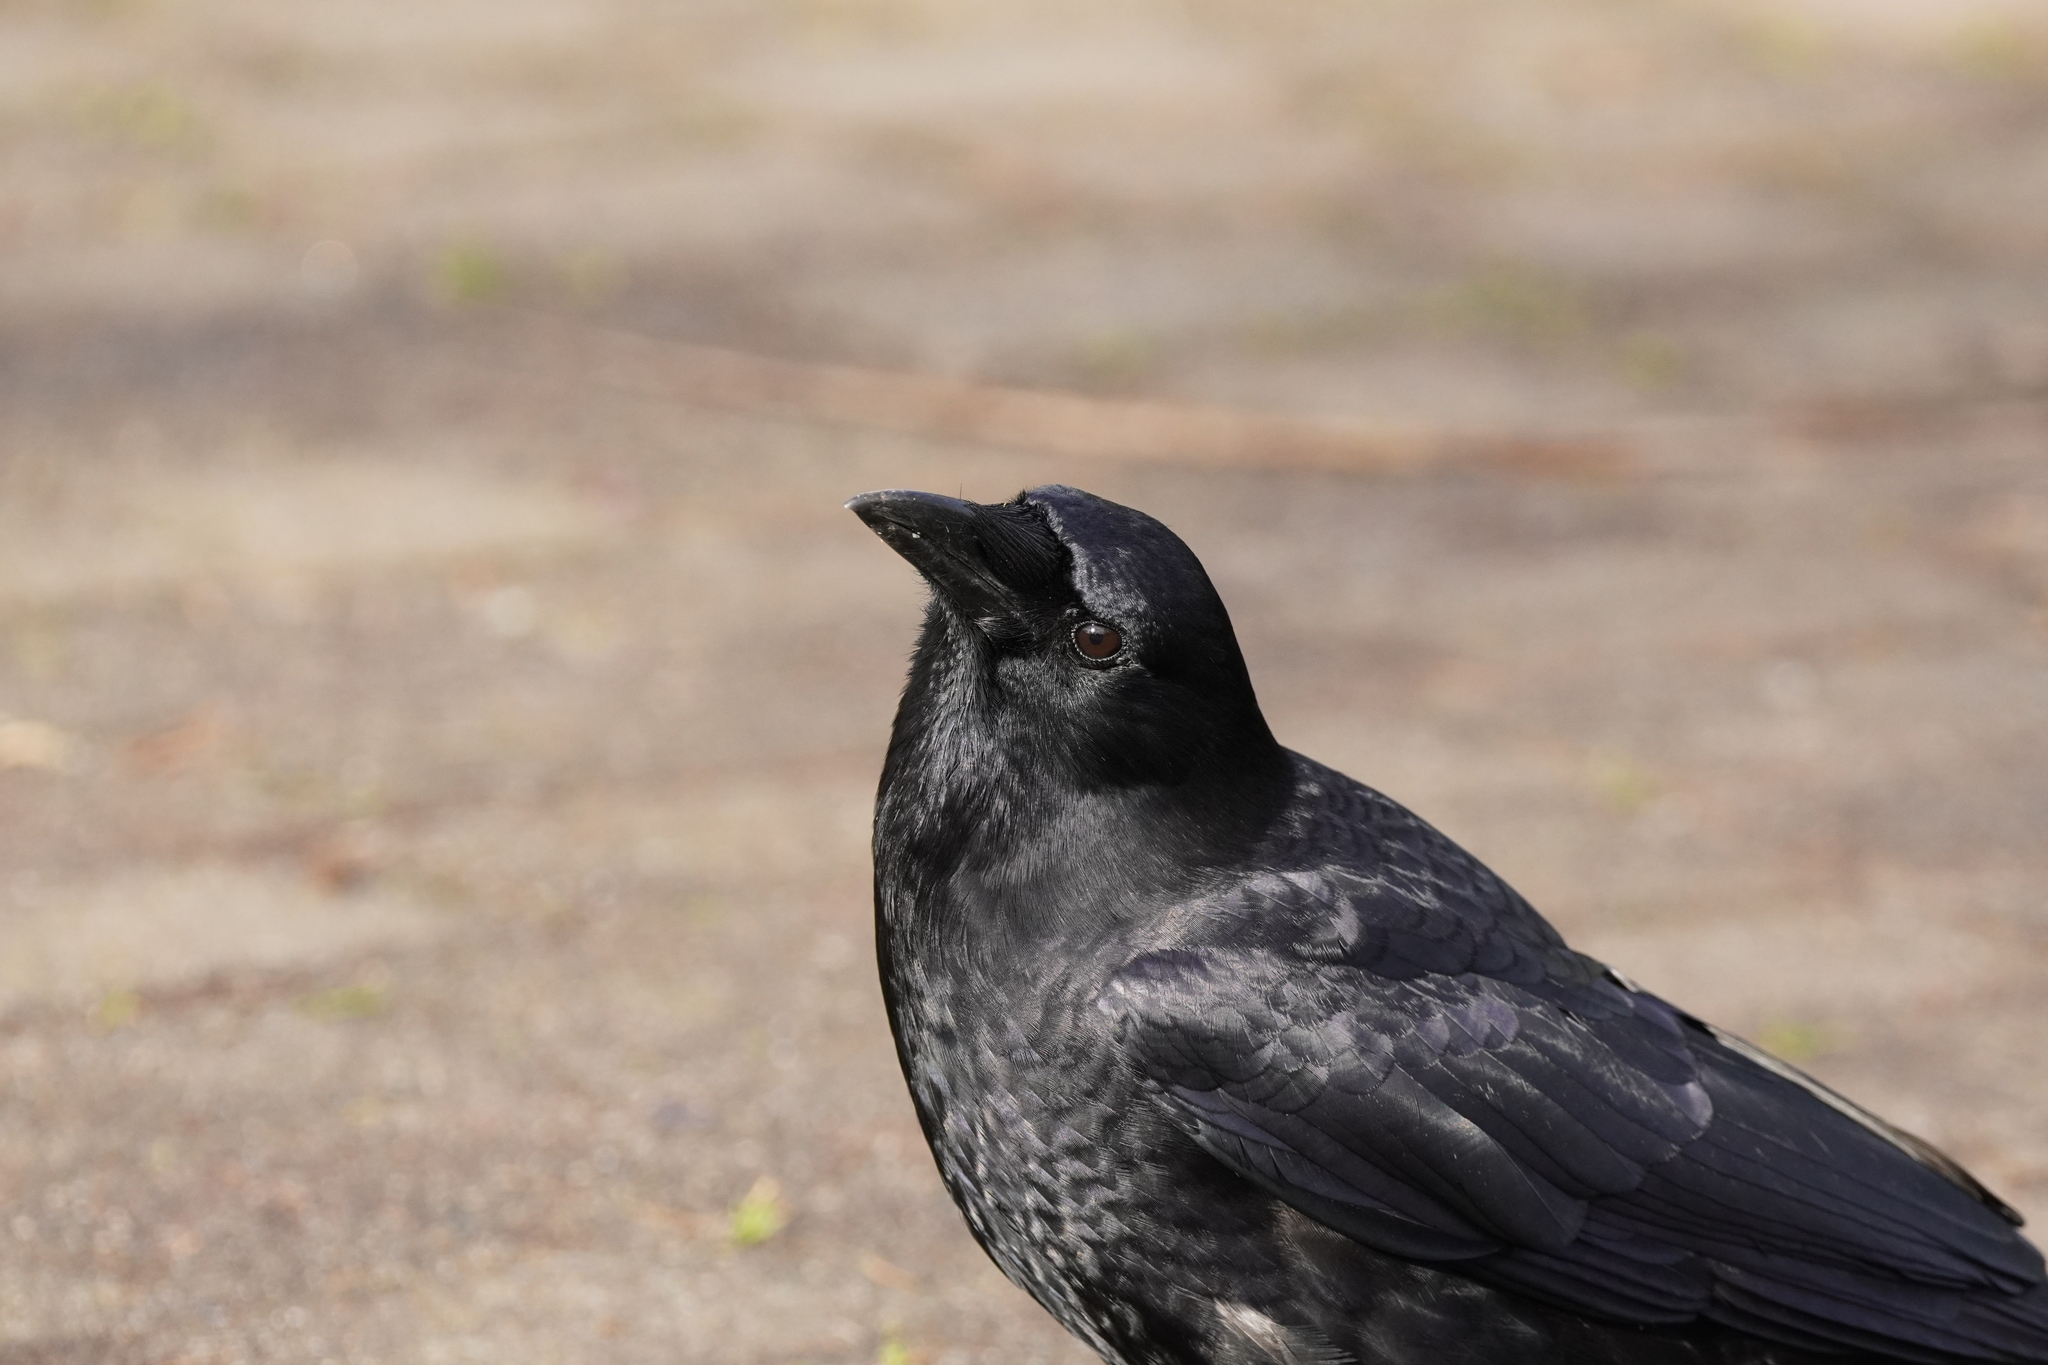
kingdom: Animalia
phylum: Chordata
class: Aves
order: Passeriformes
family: Corvidae
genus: Corvus
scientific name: Corvus brachyrhynchos
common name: American crow
